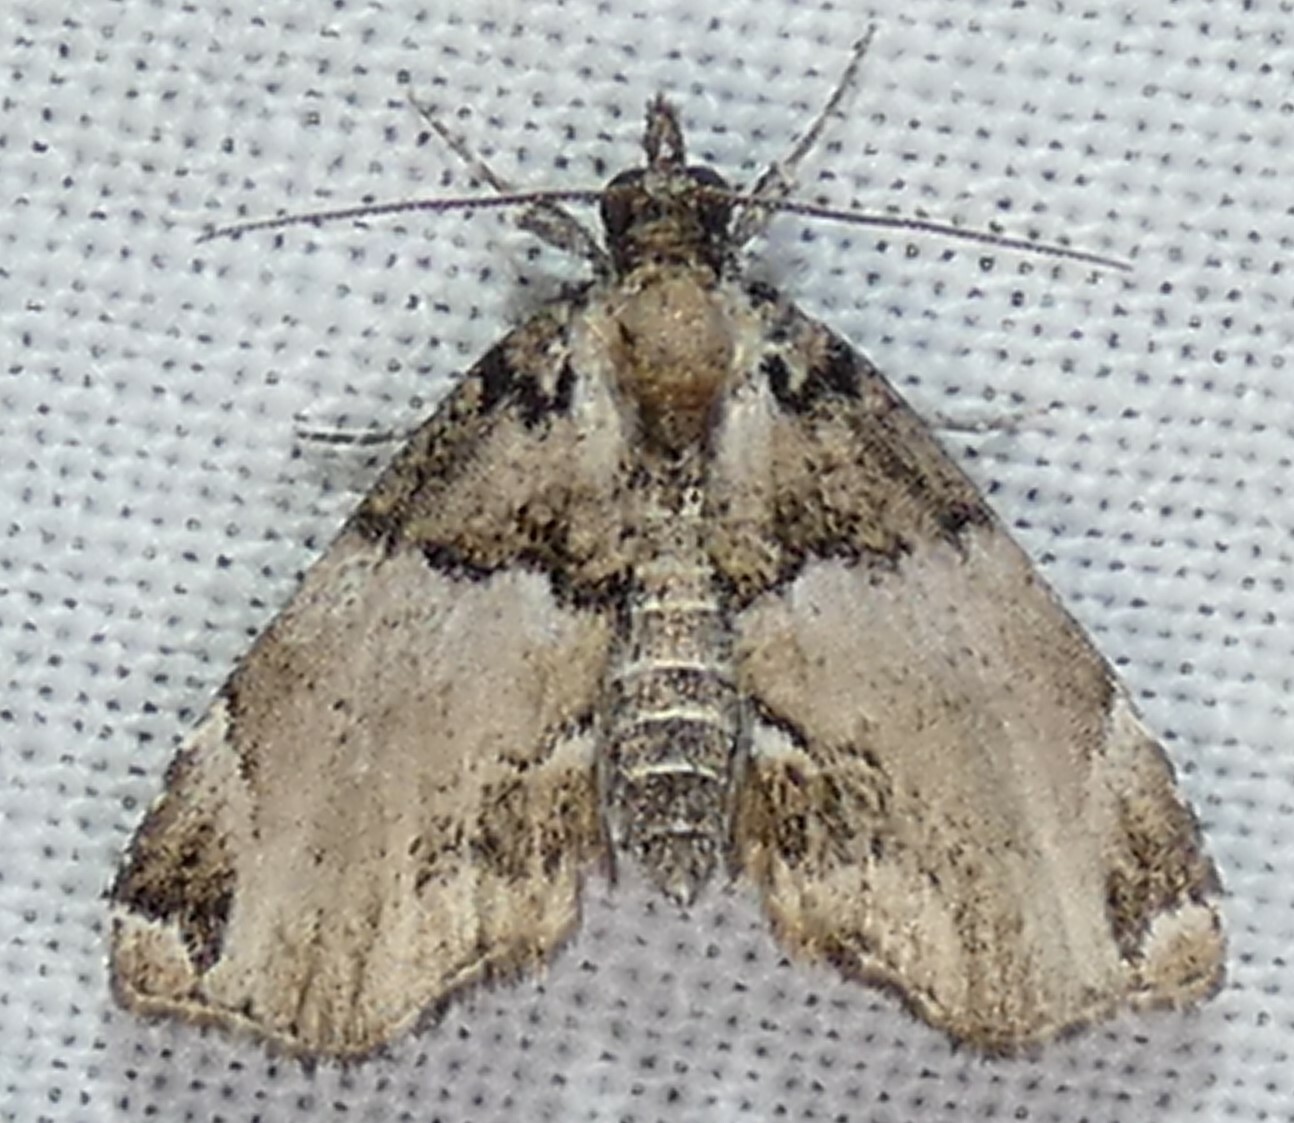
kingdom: Animalia
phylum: Arthropoda
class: Insecta
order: Lepidoptera
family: Erebidae
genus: Cutina
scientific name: Cutina distincta
